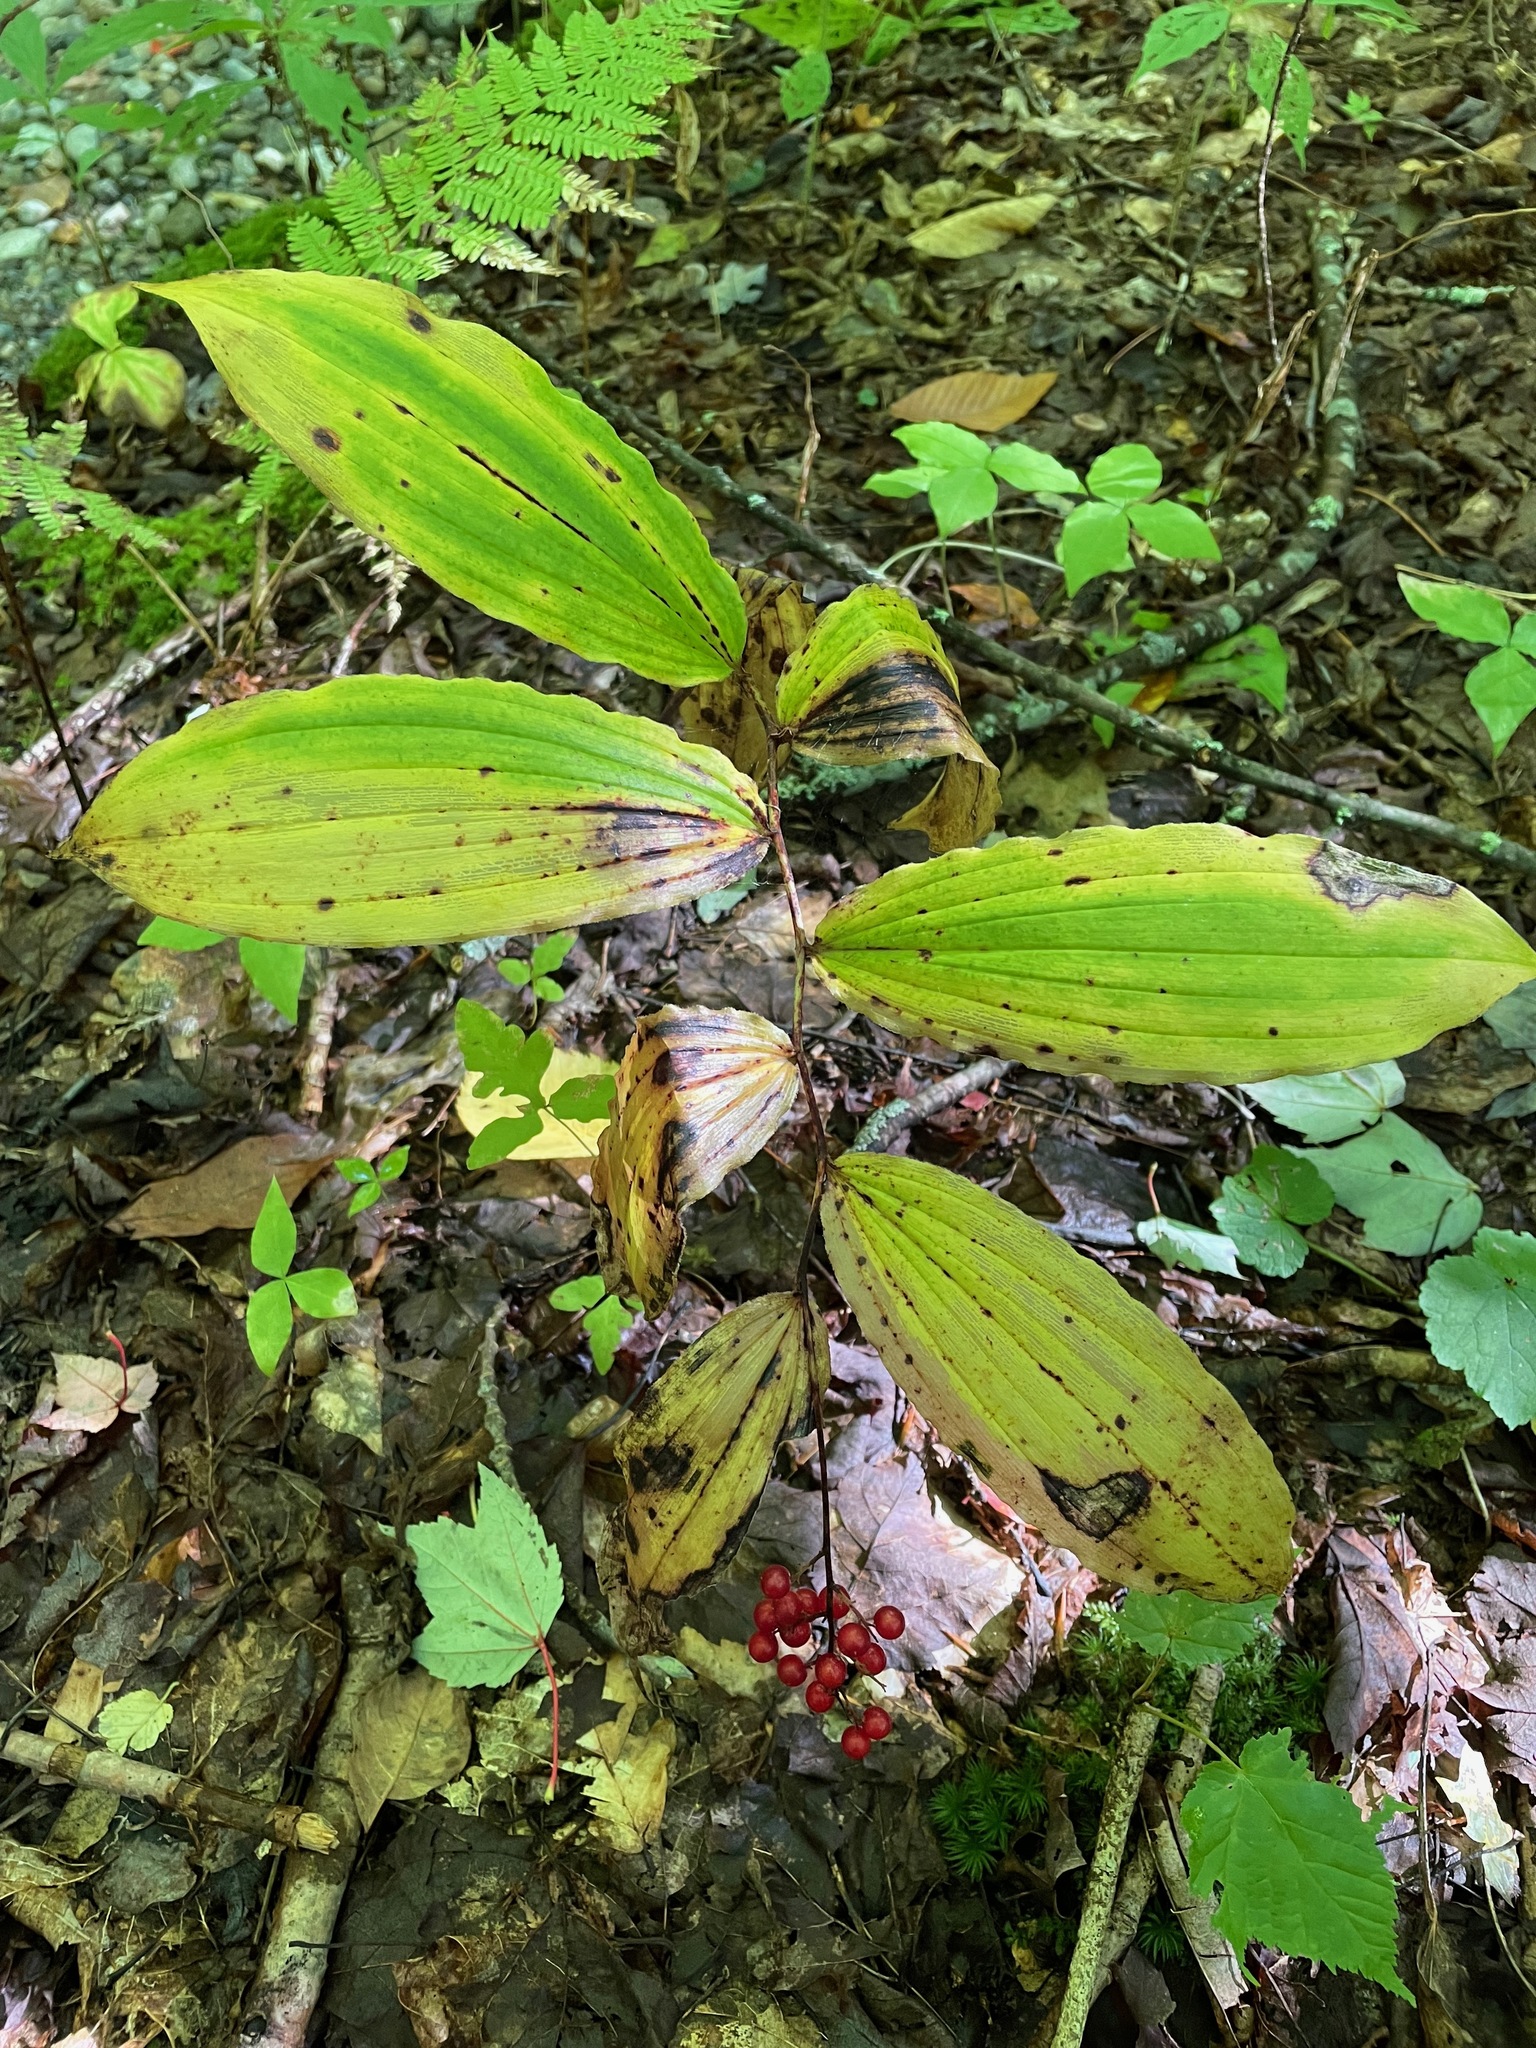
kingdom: Plantae
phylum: Tracheophyta
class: Liliopsida
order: Asparagales
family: Asparagaceae
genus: Maianthemum
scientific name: Maianthemum racemosum
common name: False spikenard
